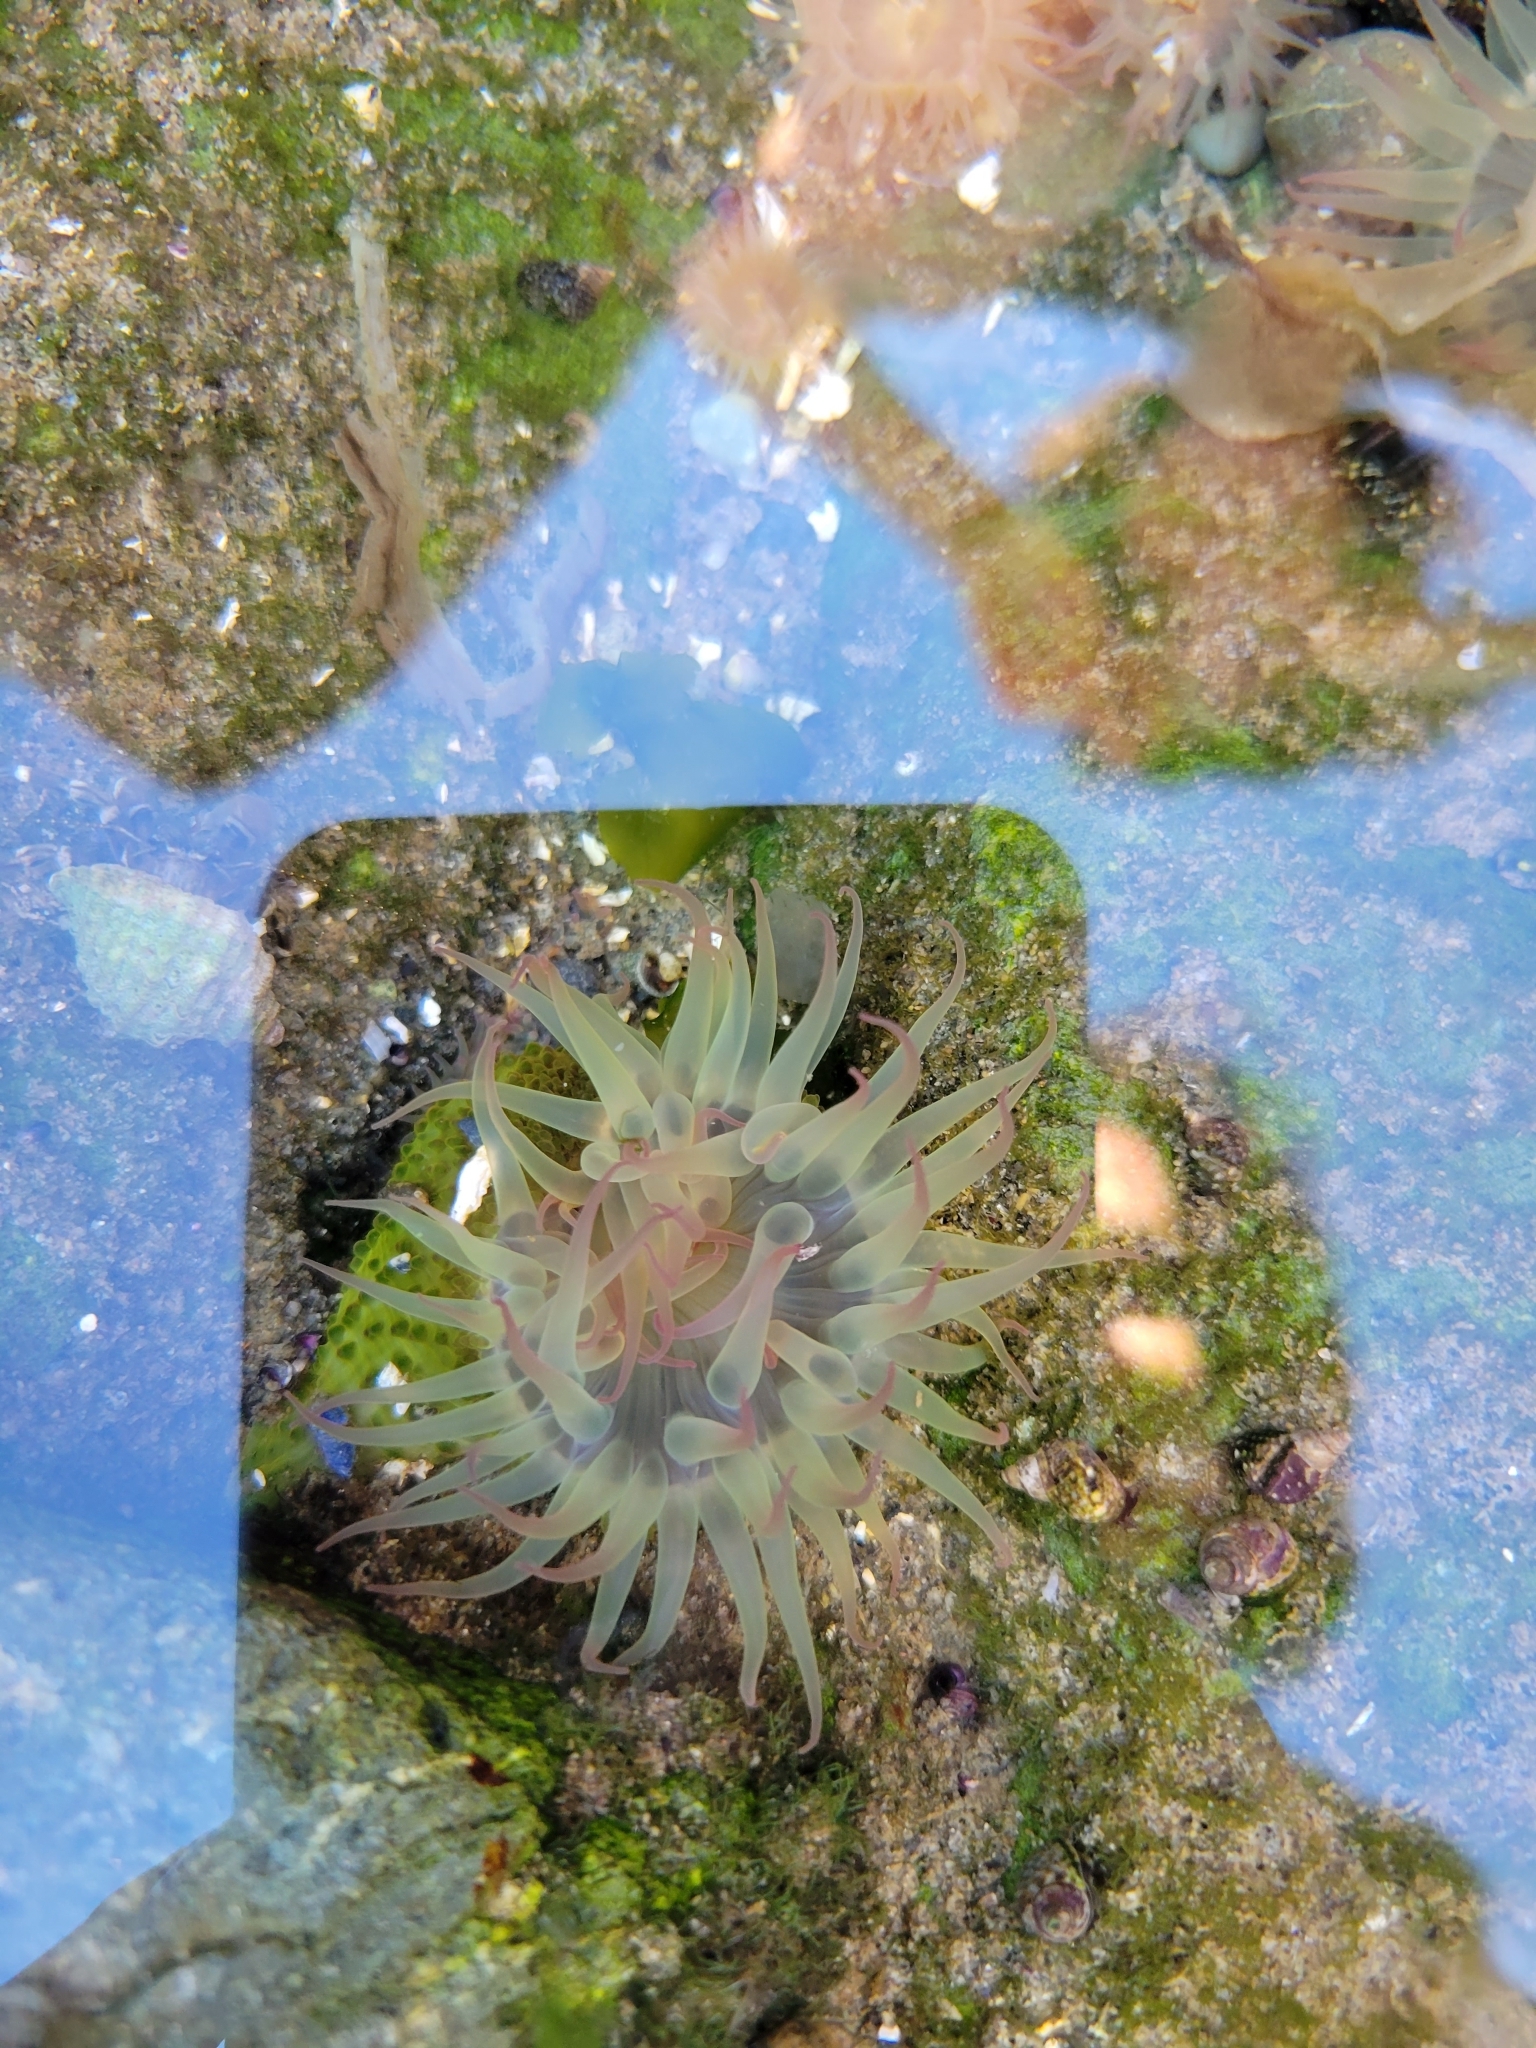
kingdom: Animalia
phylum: Cnidaria
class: Anthozoa
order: Actiniaria
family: Actiniidae
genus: Anthopleura
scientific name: Anthopleura elegantissima
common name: Clonal anemone
